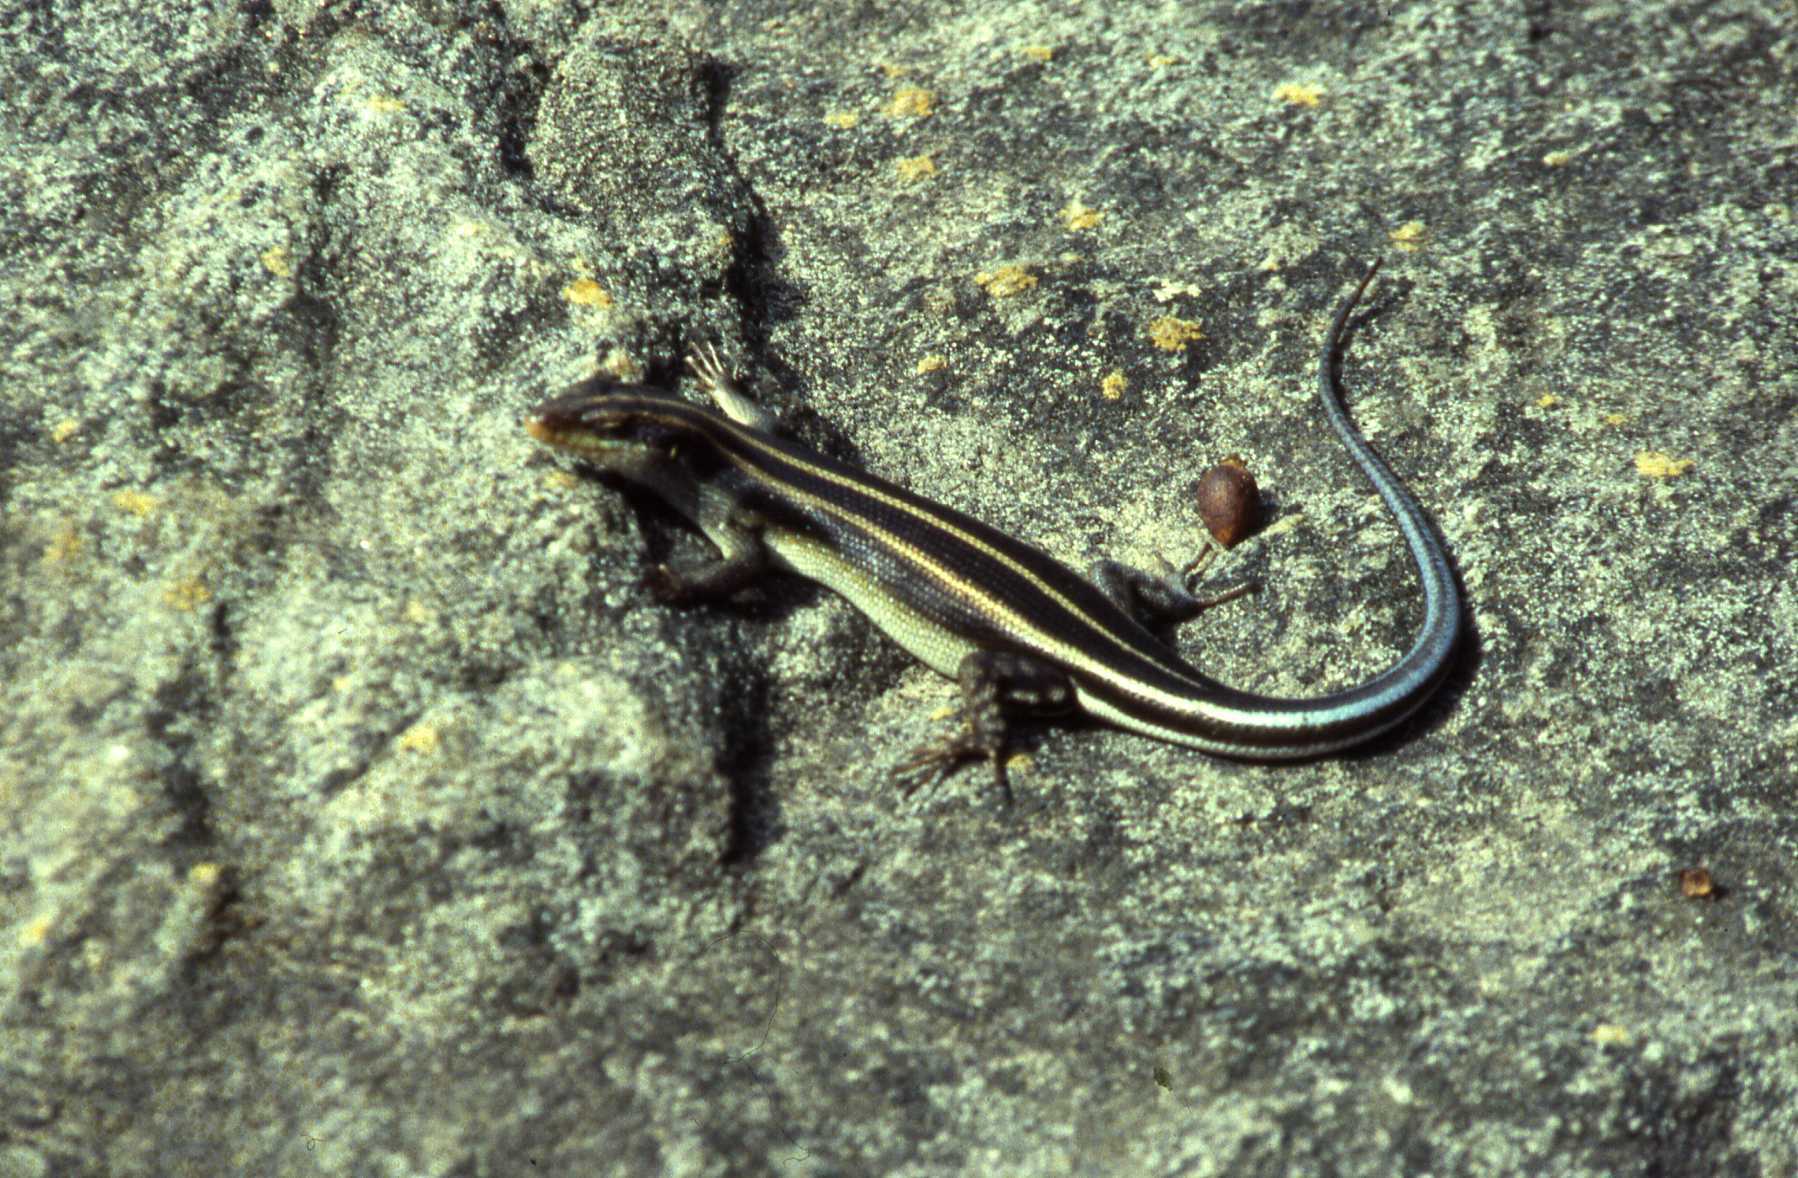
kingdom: Animalia
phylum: Chordata
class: Squamata
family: Scincidae
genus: Trachylepis
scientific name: Trachylepis margaritifera
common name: Rainbow skink
